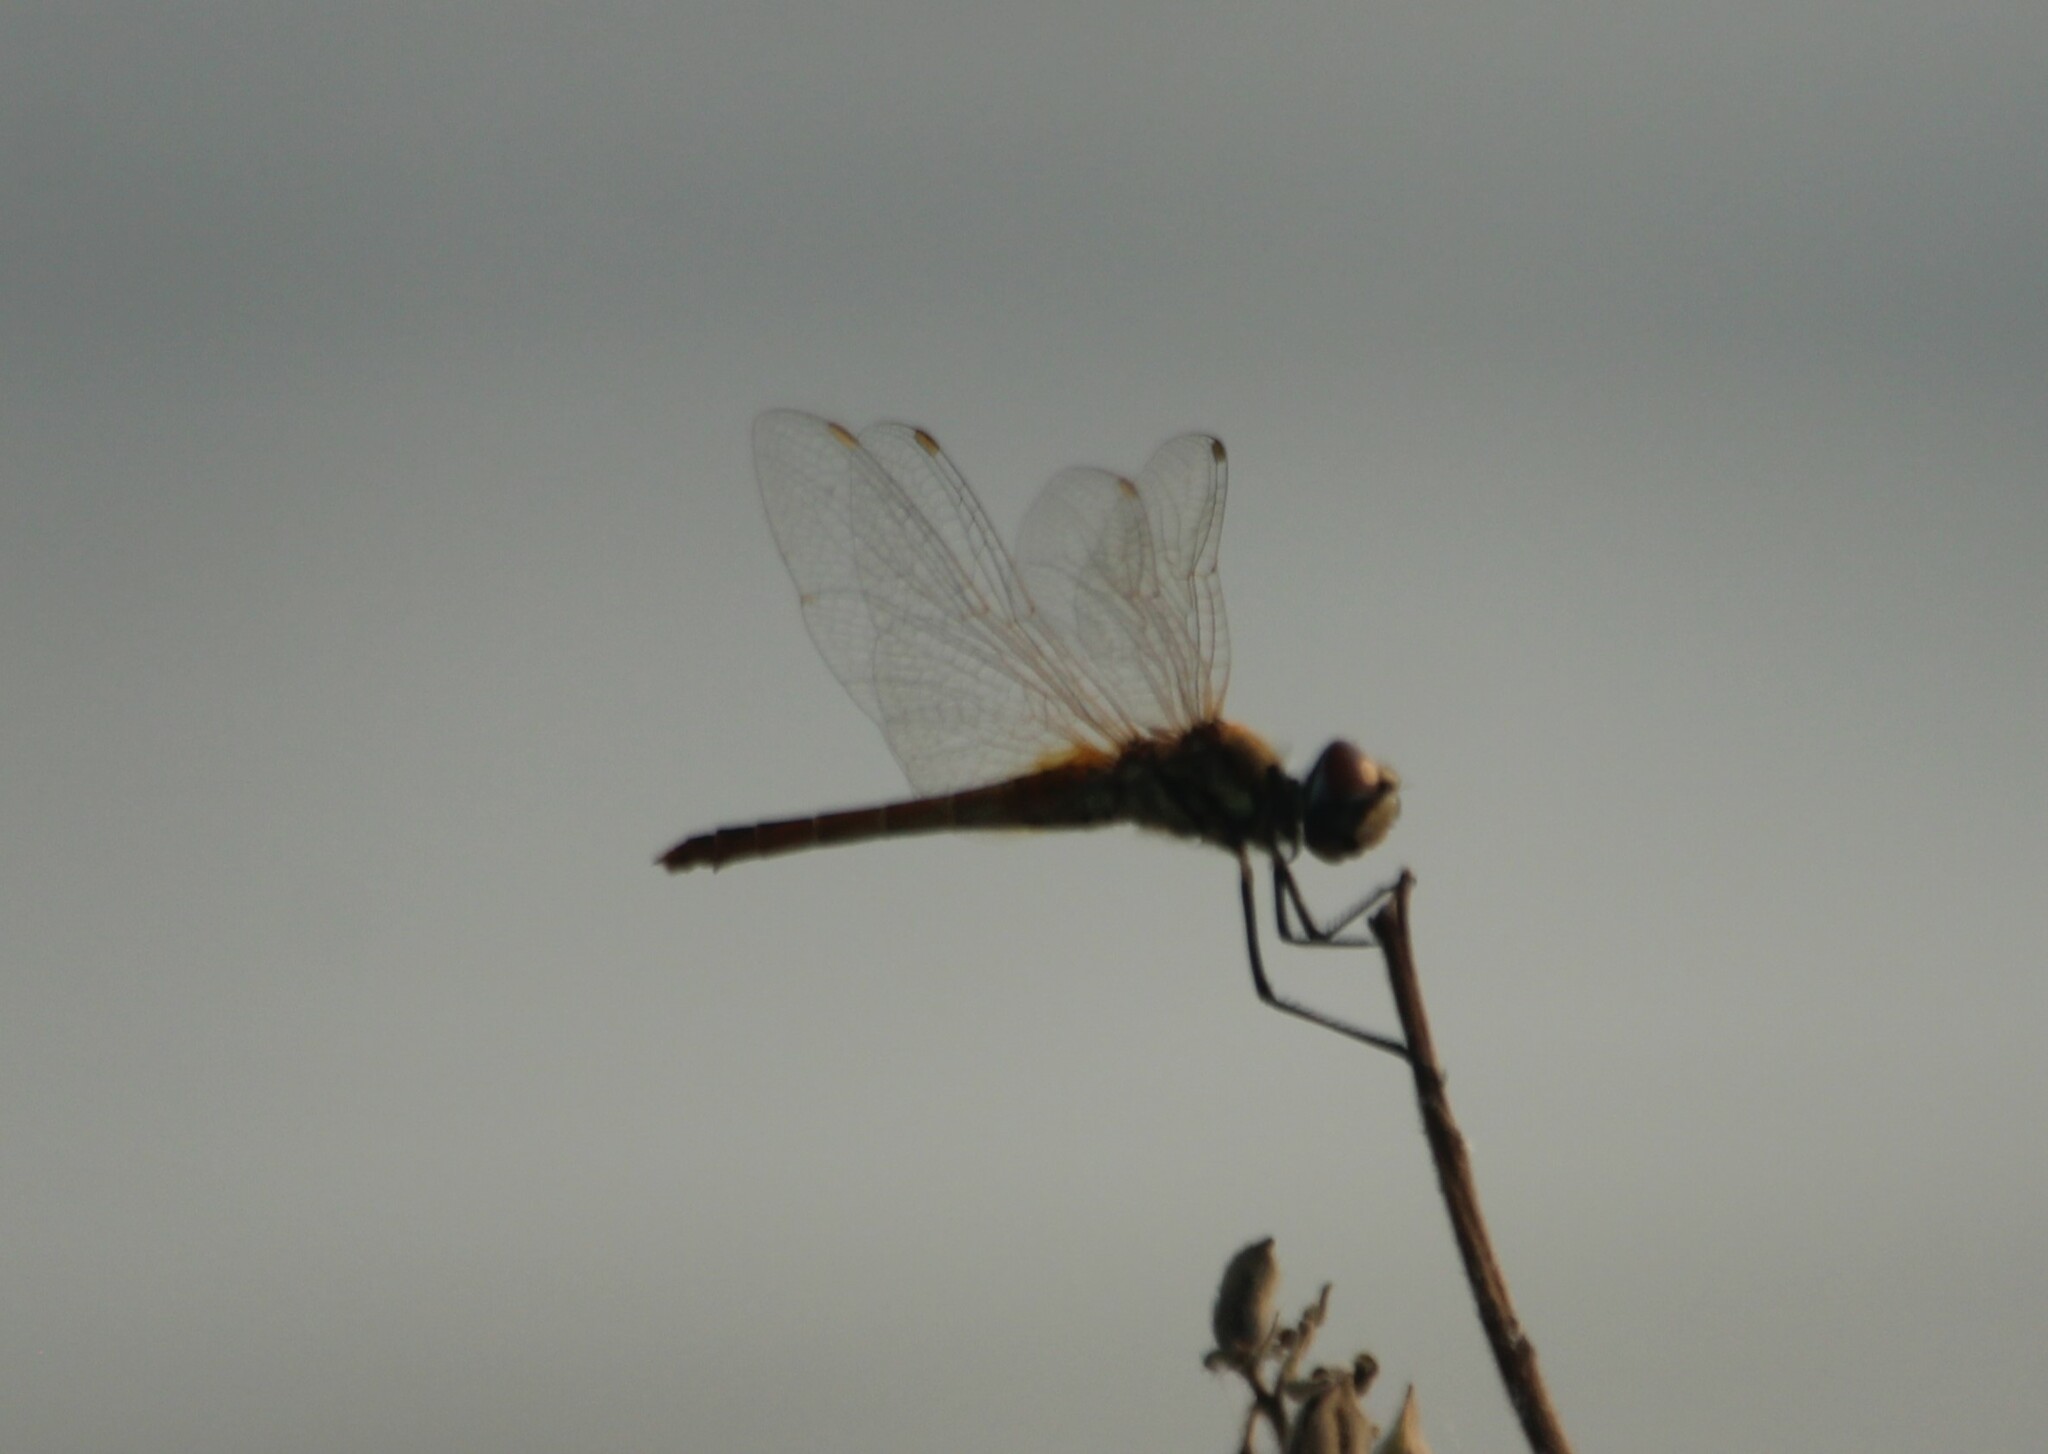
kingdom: Animalia
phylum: Arthropoda
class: Insecta
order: Odonata
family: Libellulidae
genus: Trithemis
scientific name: Trithemis pallidinervis
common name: Dancing dropwing
